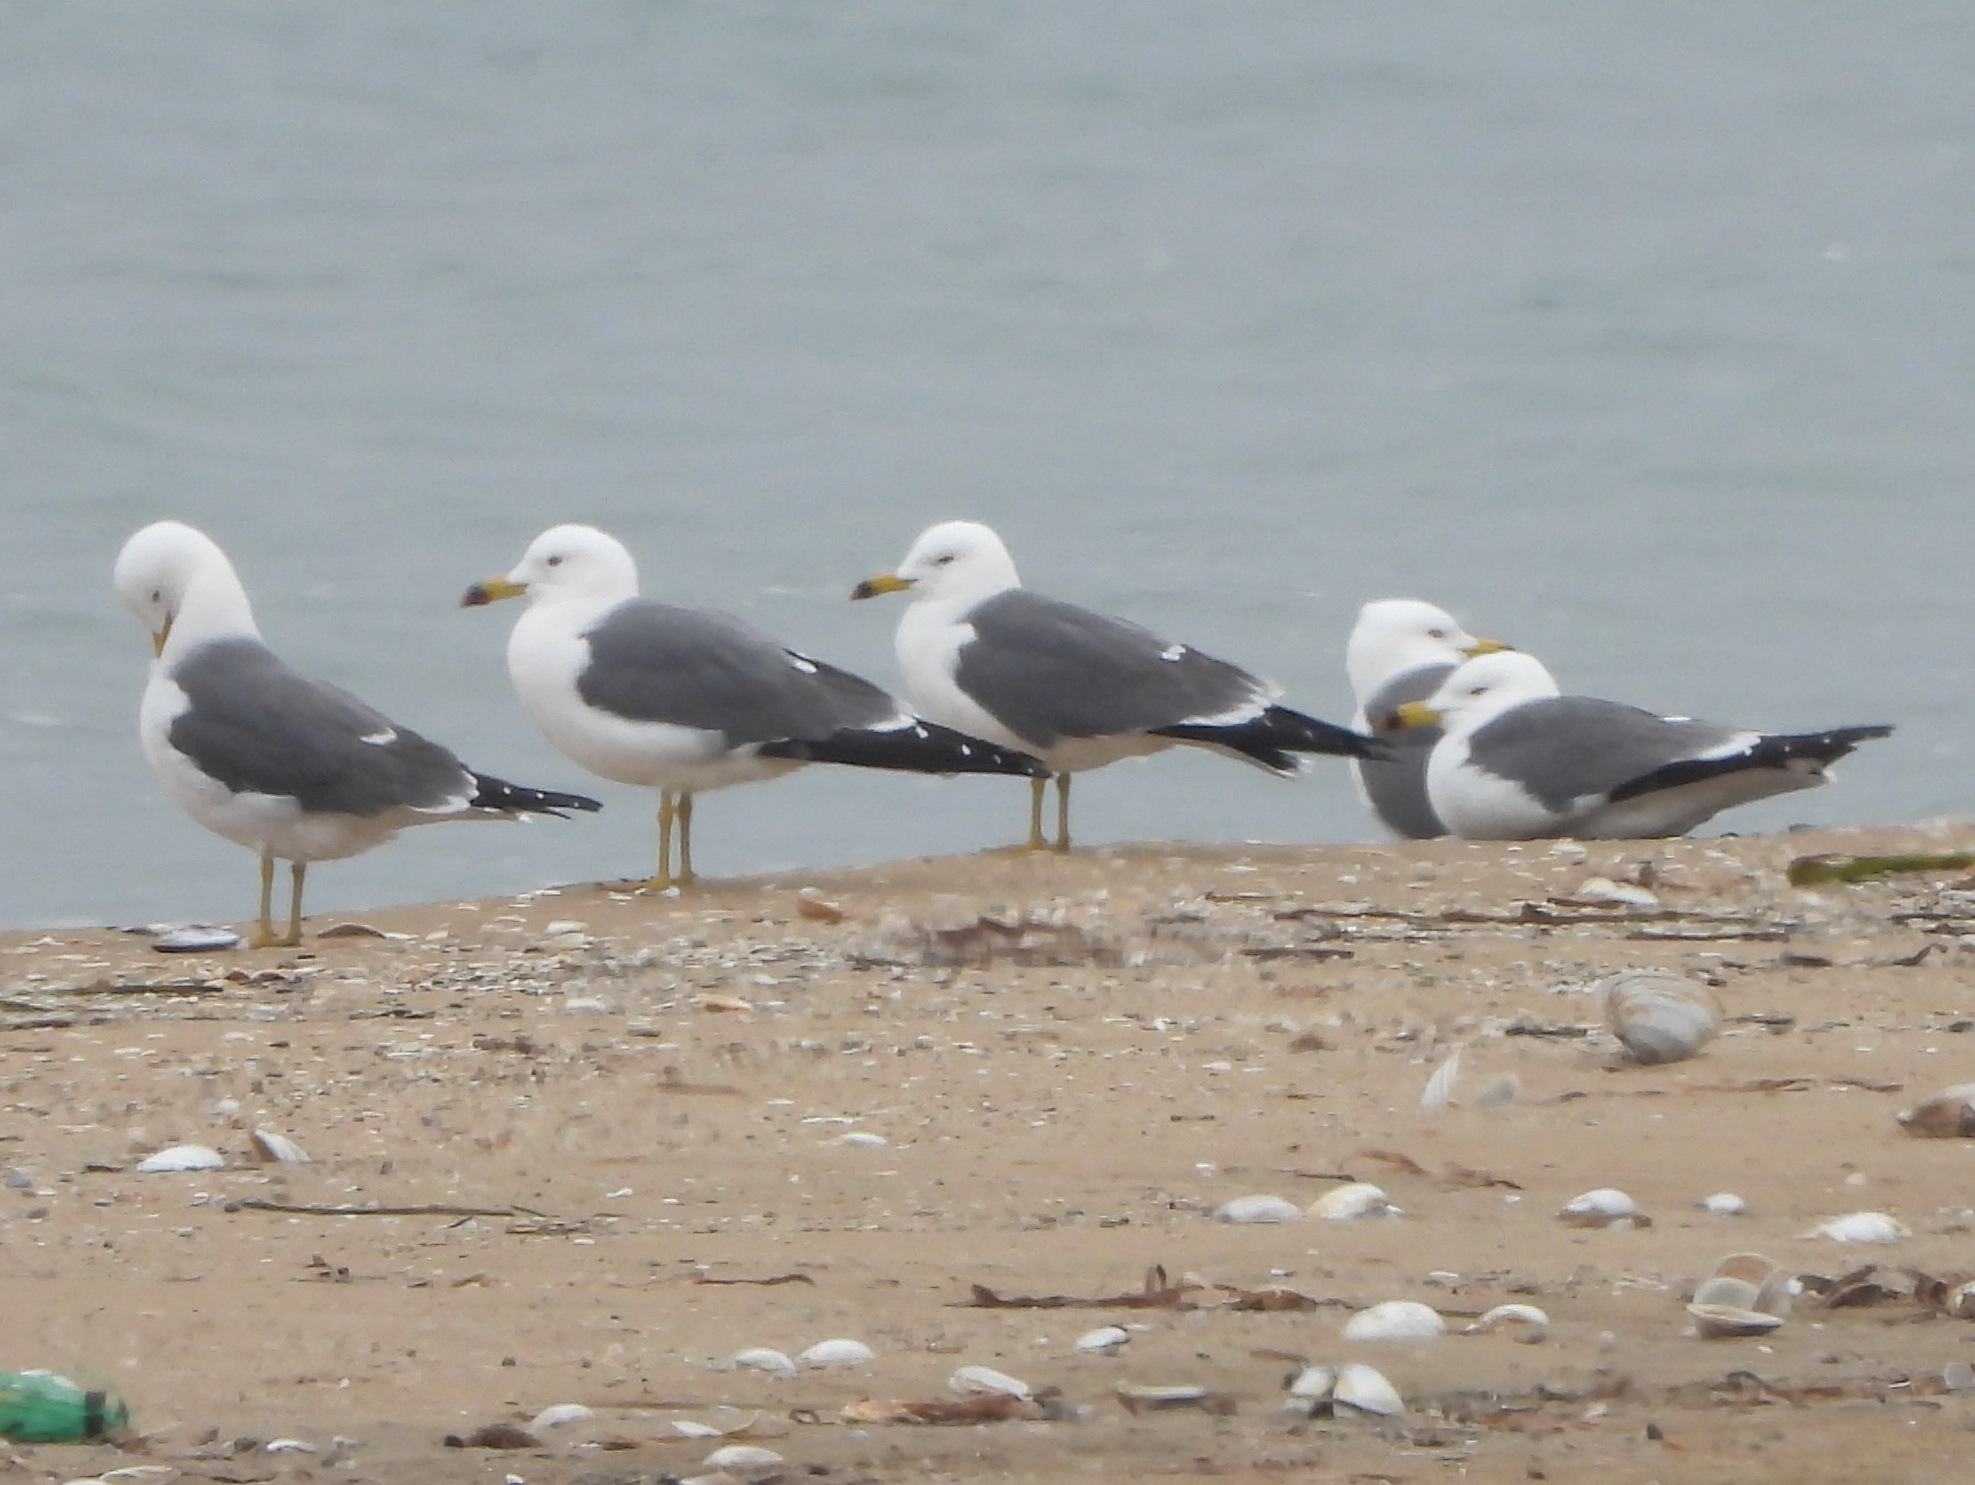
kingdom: Animalia
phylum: Chordata
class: Aves
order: Charadriiformes
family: Laridae
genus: Larus
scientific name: Larus crassirostris
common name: Black-tailed gull
